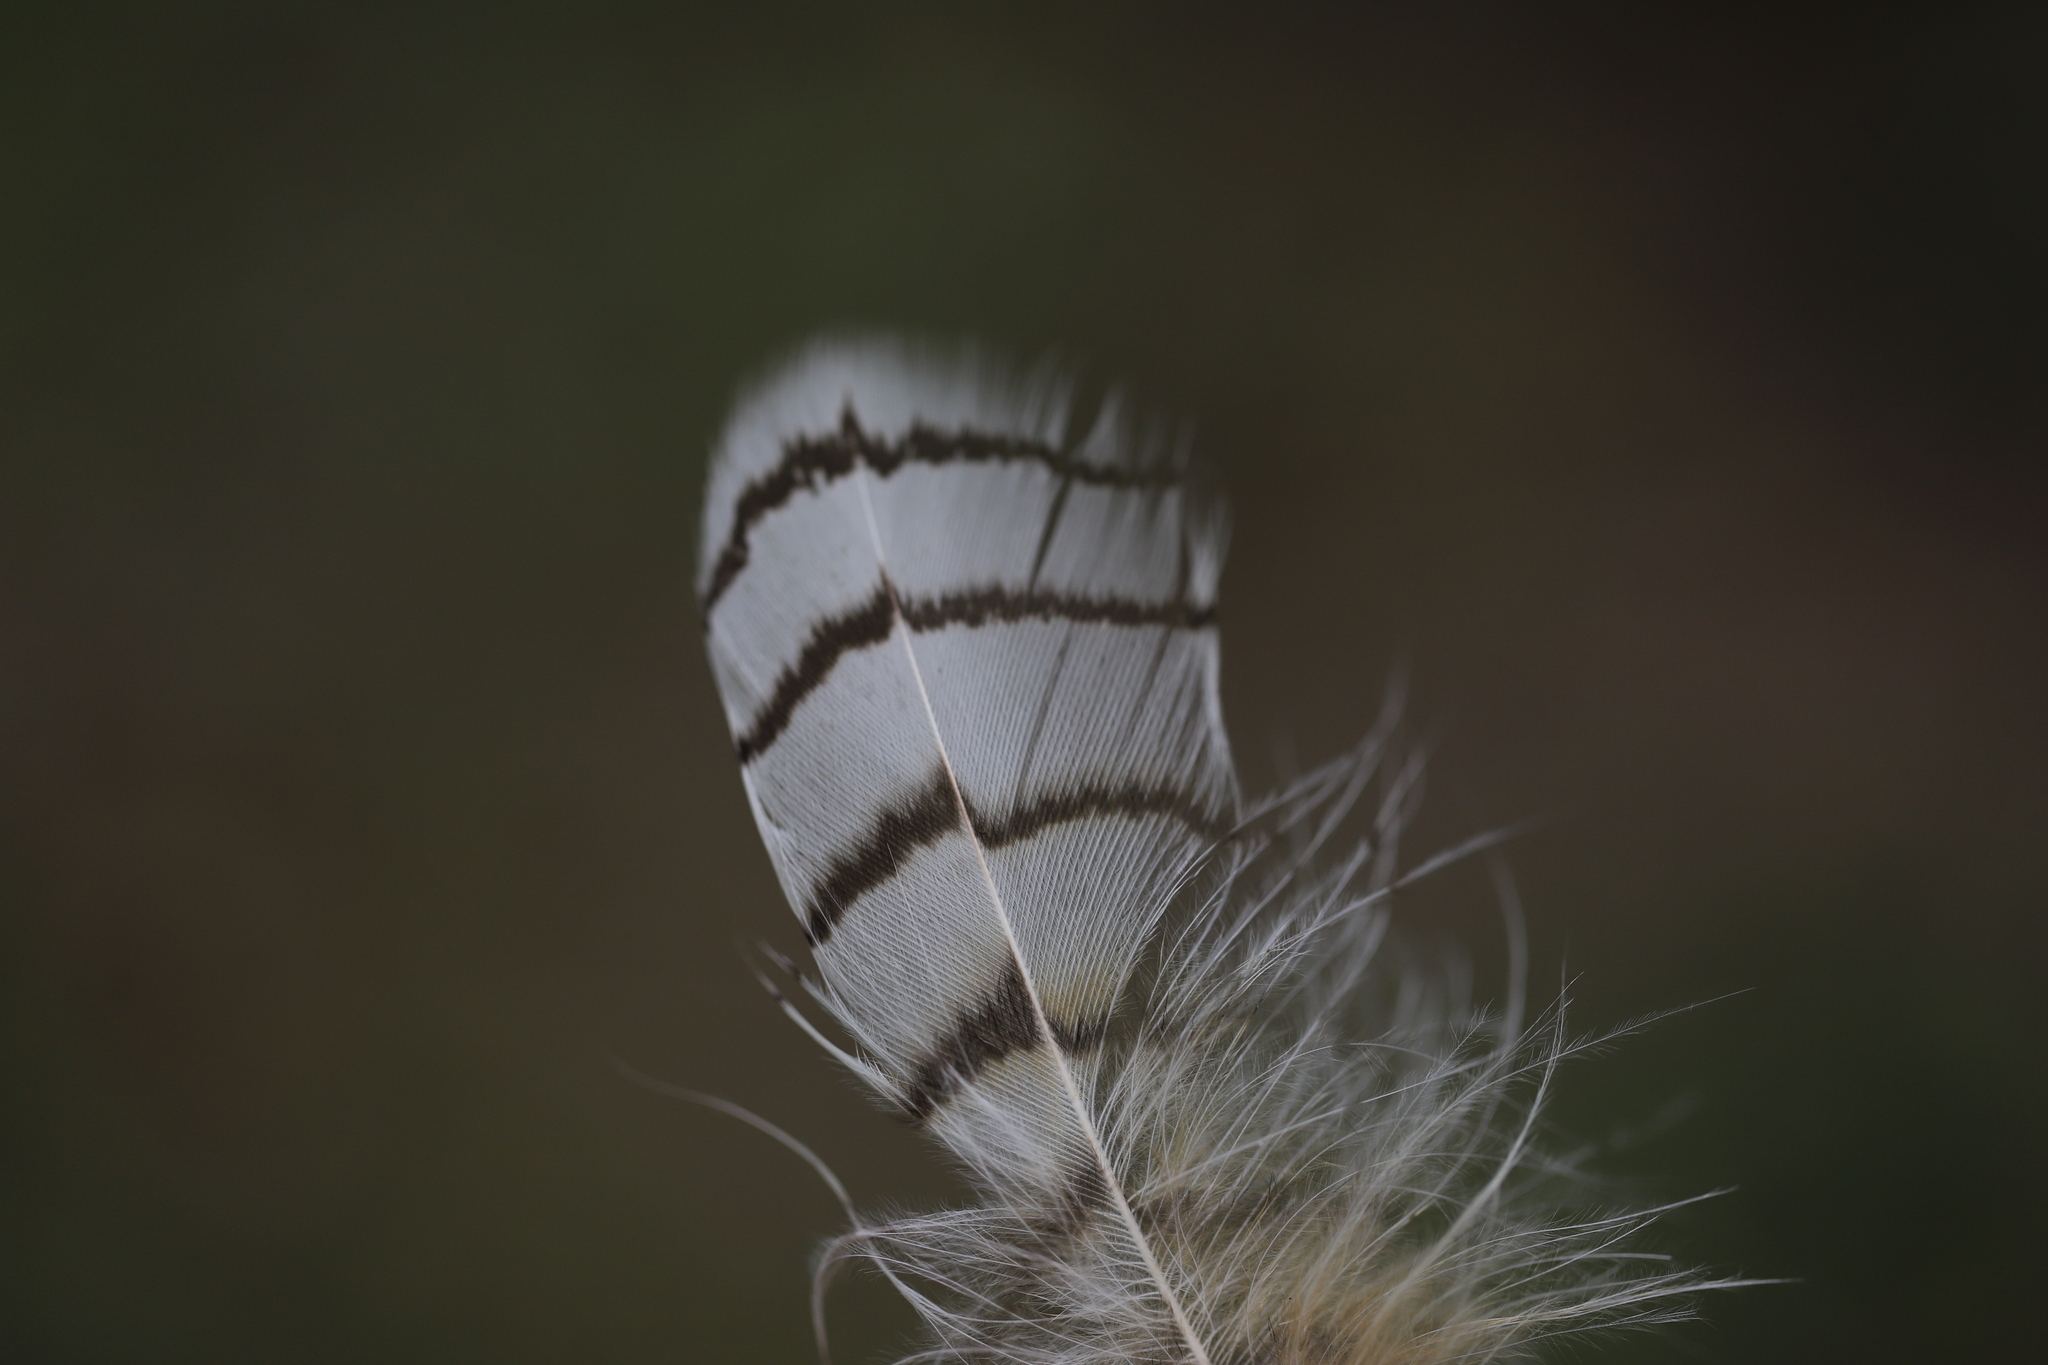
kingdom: Animalia
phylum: Chordata
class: Aves
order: Strigiformes
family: Strigidae
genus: Bubo
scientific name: Bubo virginianus
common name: Great horned owl
